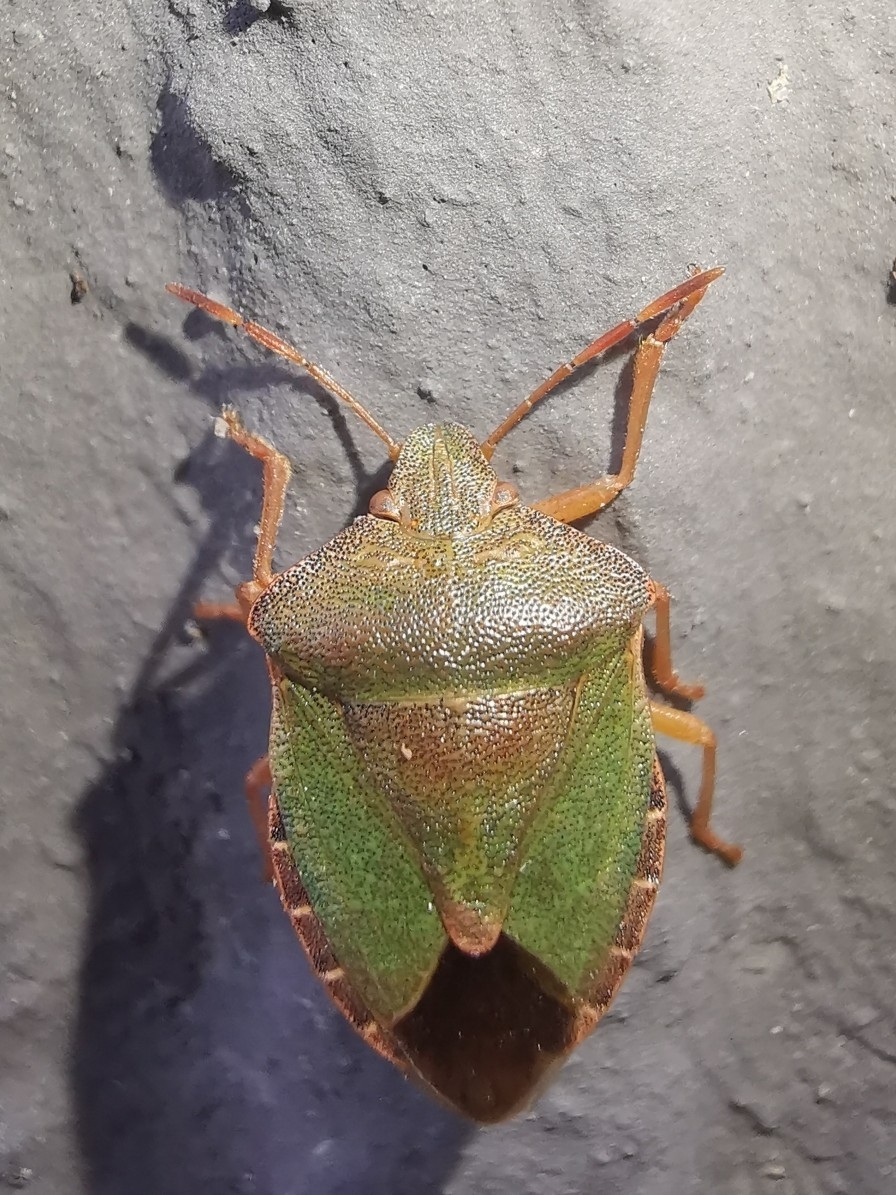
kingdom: Animalia
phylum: Arthropoda
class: Insecta
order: Hemiptera
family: Pentatomidae
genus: Palomena
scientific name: Palomena prasina
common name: Green shieldbug
